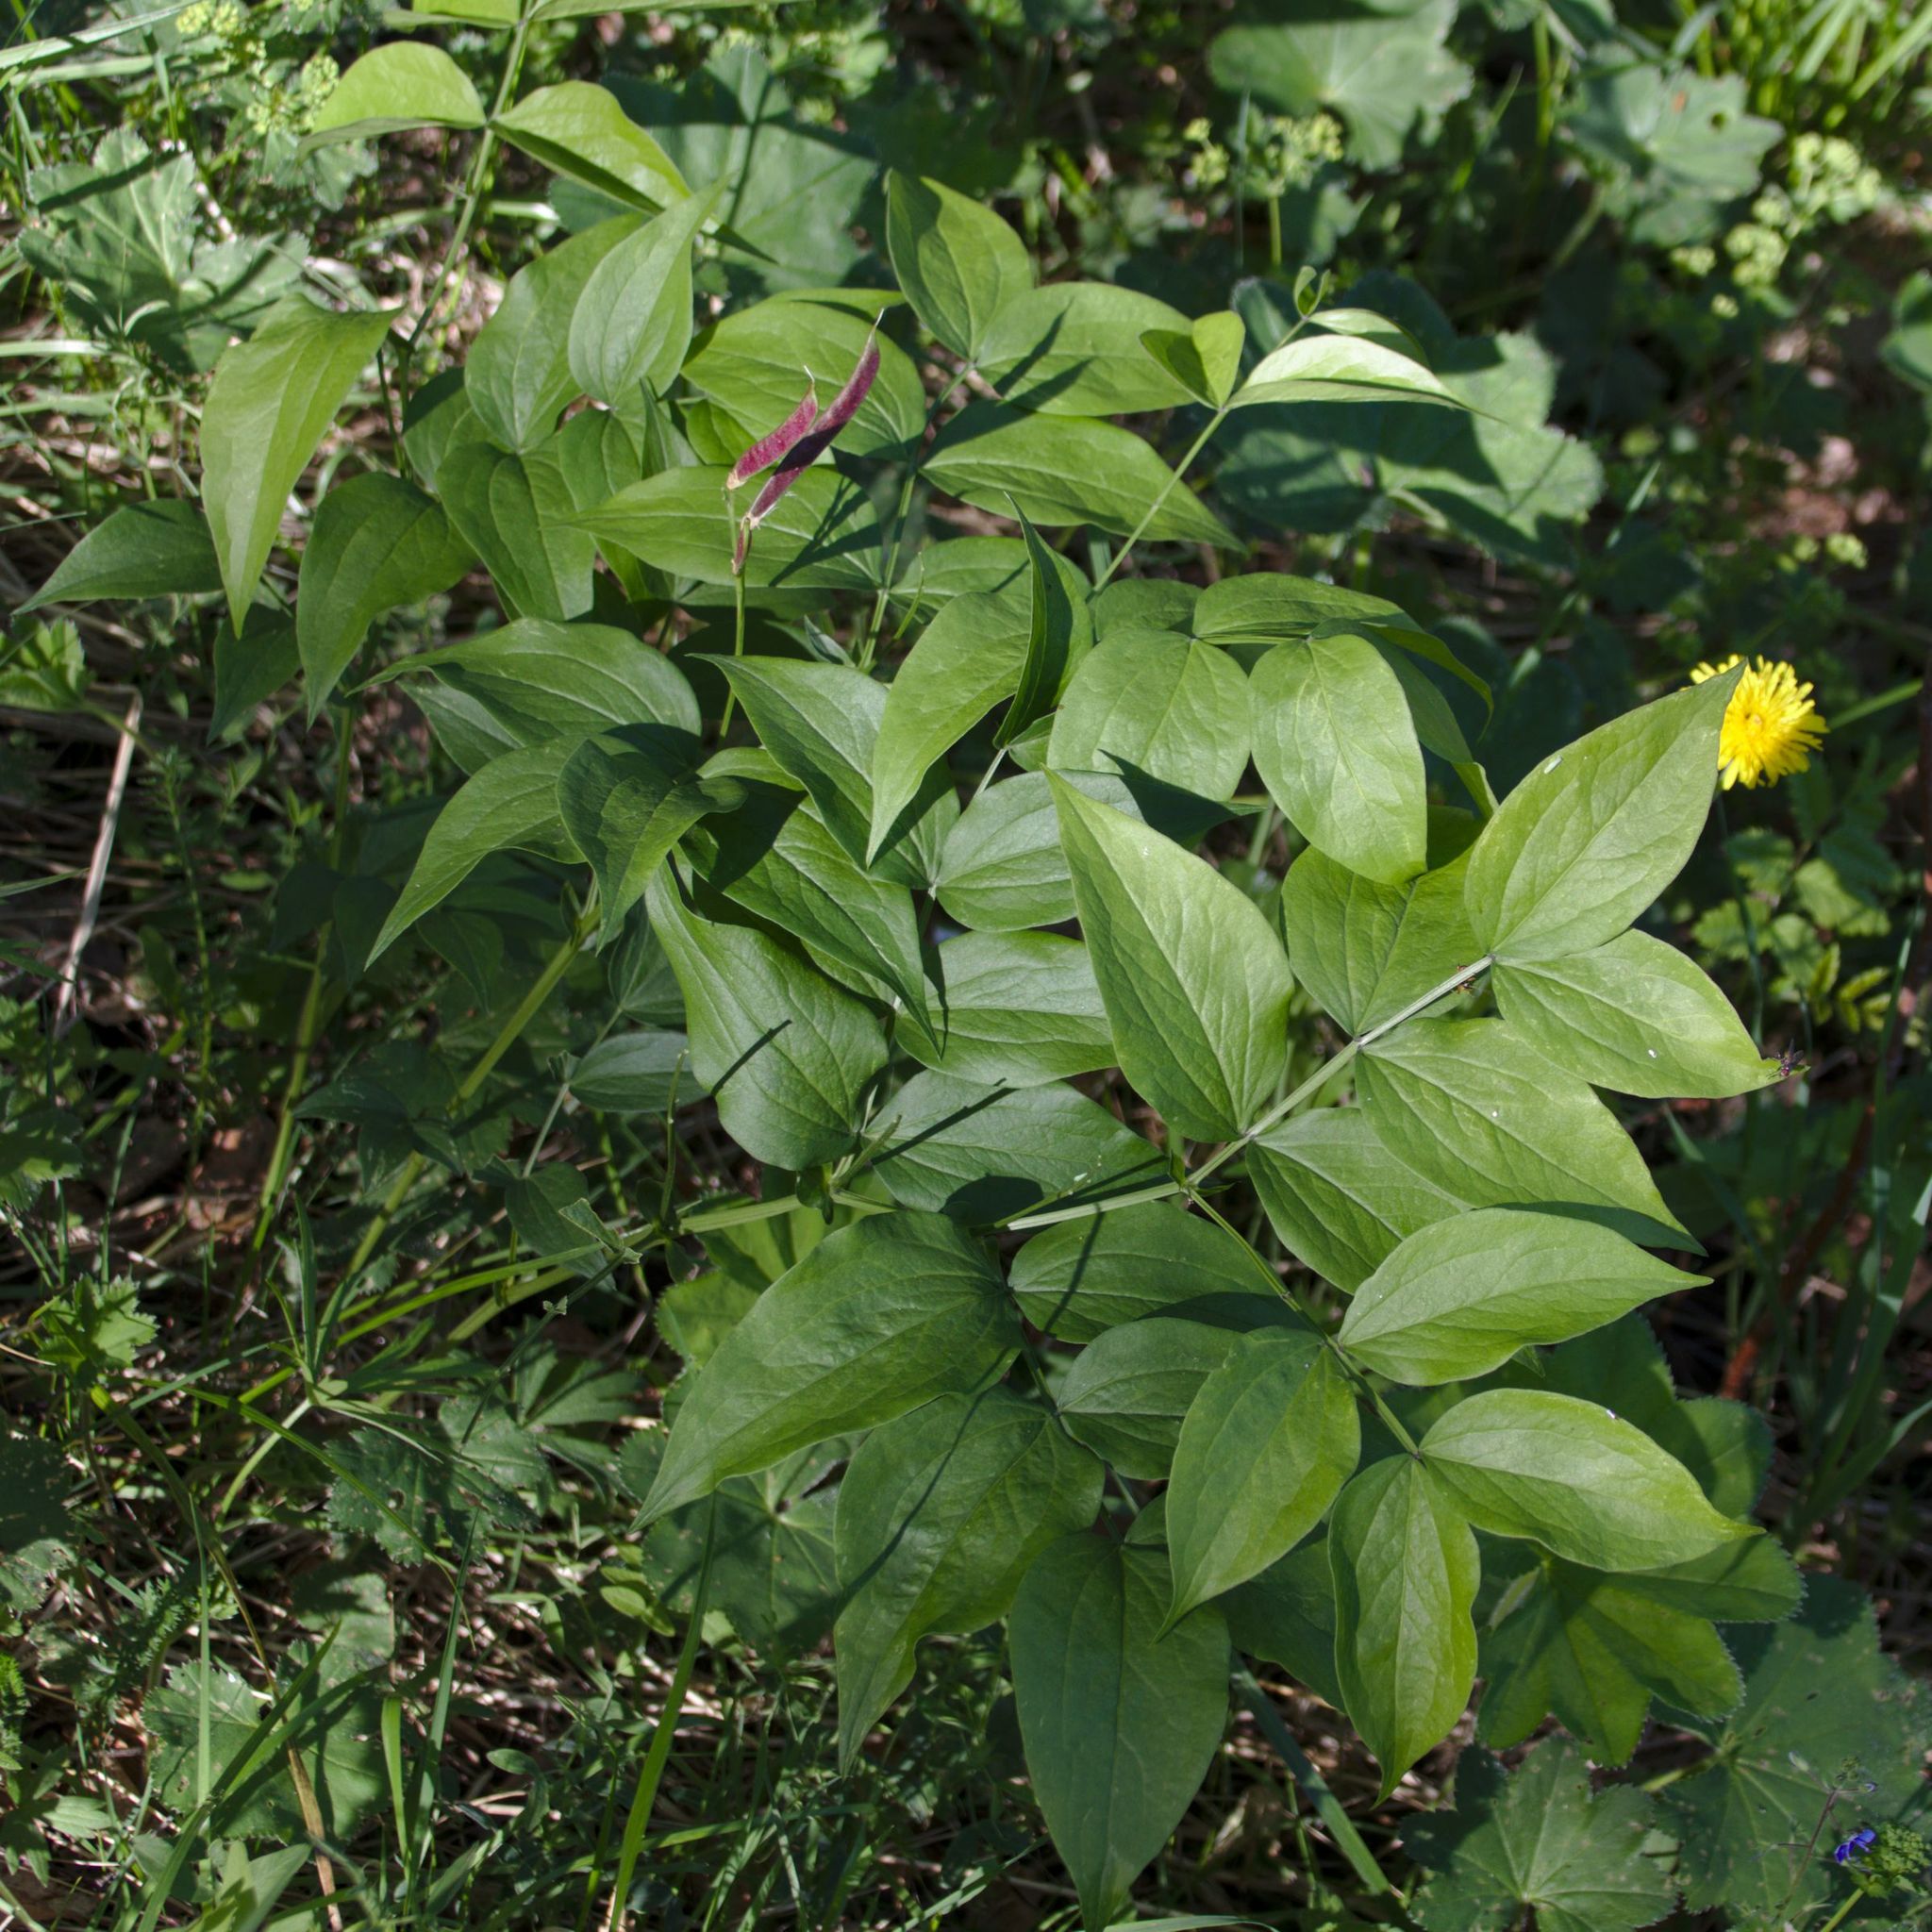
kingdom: Plantae
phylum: Tracheophyta
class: Magnoliopsida
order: Fabales
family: Fabaceae
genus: Lathyrus
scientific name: Lathyrus vernus
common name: Spring pea
